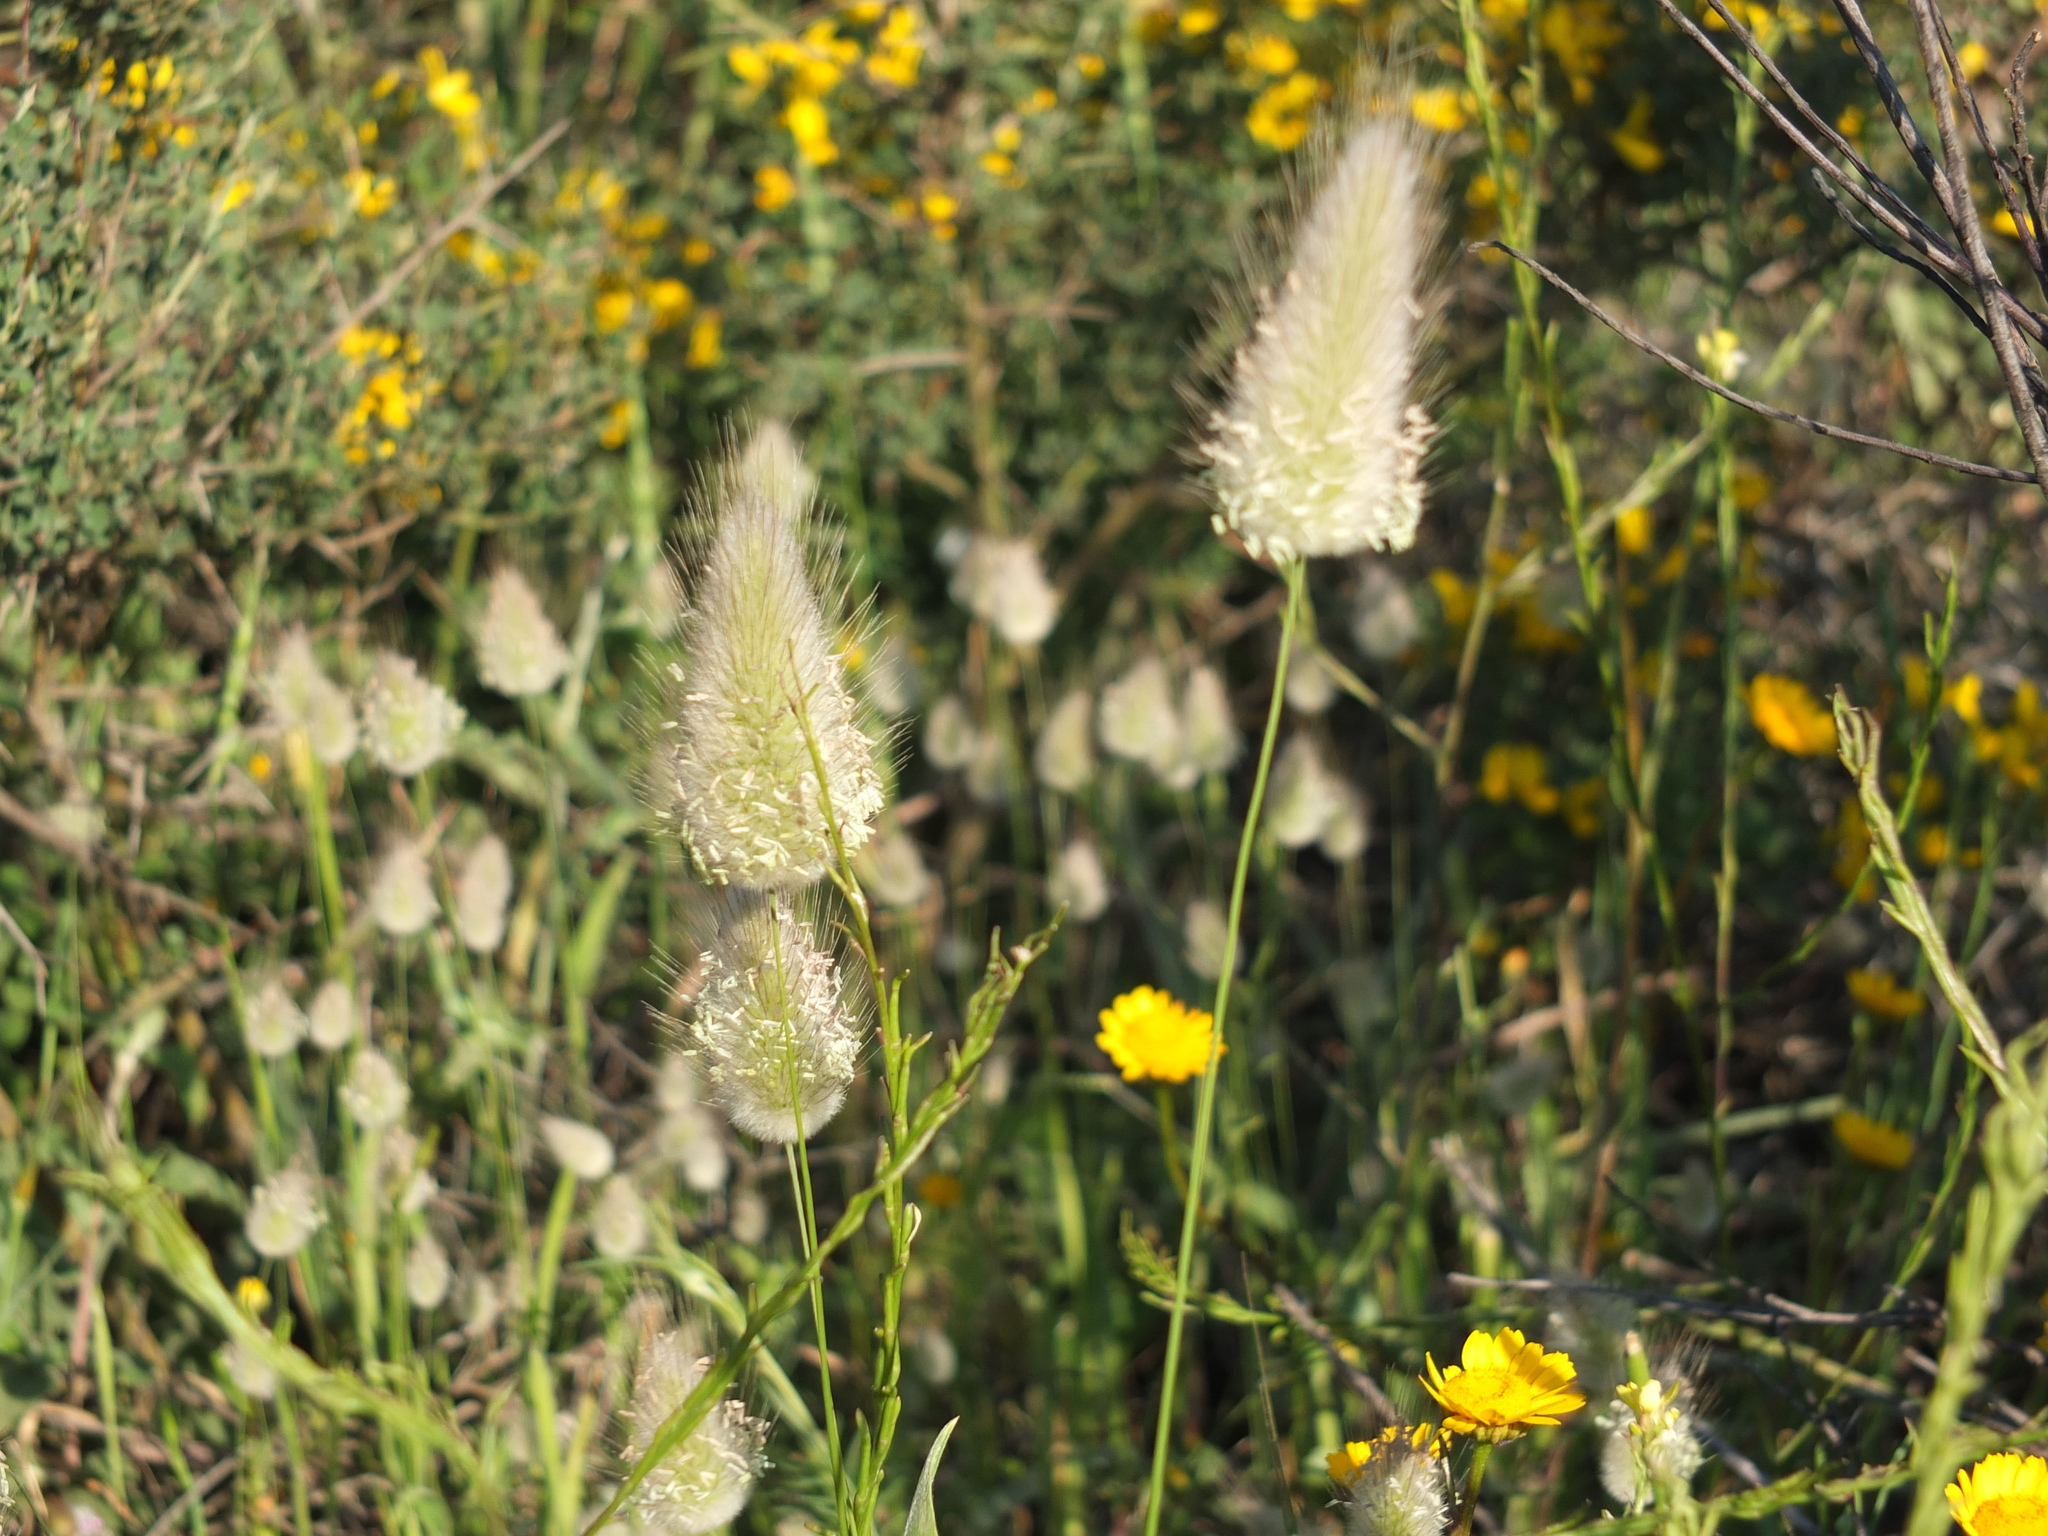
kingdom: Plantae
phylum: Tracheophyta
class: Liliopsida
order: Poales
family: Poaceae
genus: Lagurus
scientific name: Lagurus ovatus
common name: Hare's-tail
